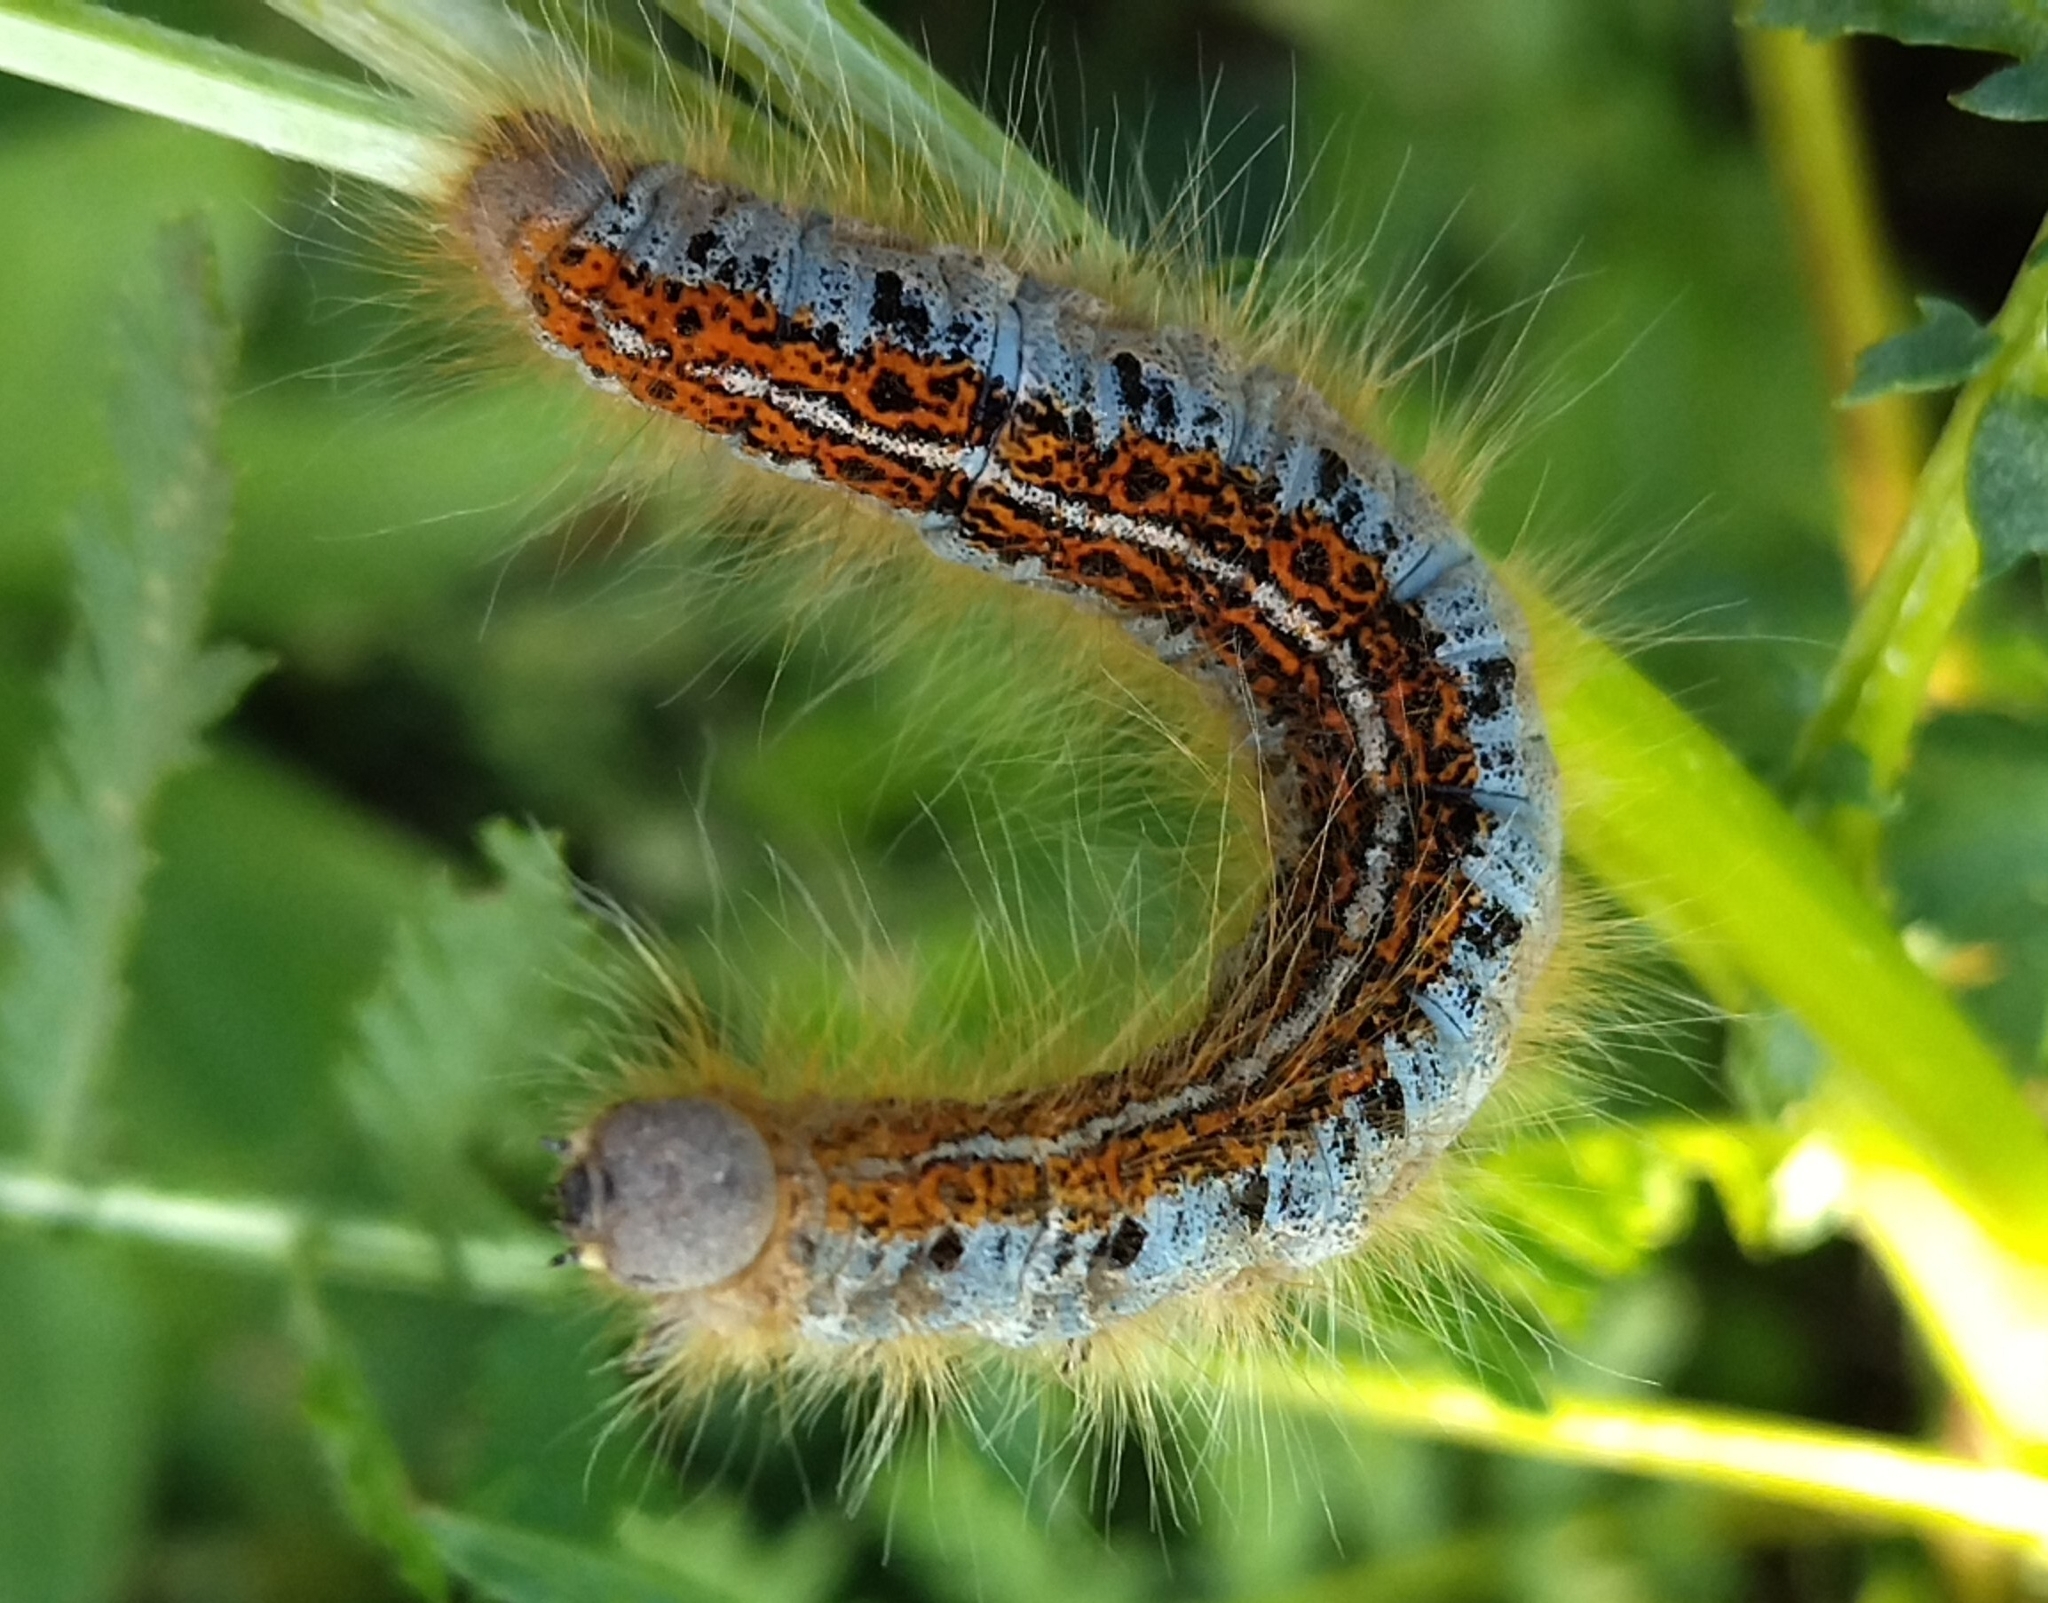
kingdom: Animalia
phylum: Arthropoda
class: Insecta
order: Lepidoptera
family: Lasiocampidae
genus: Malacosoma
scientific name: Malacosoma castrense
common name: Ground lackey
